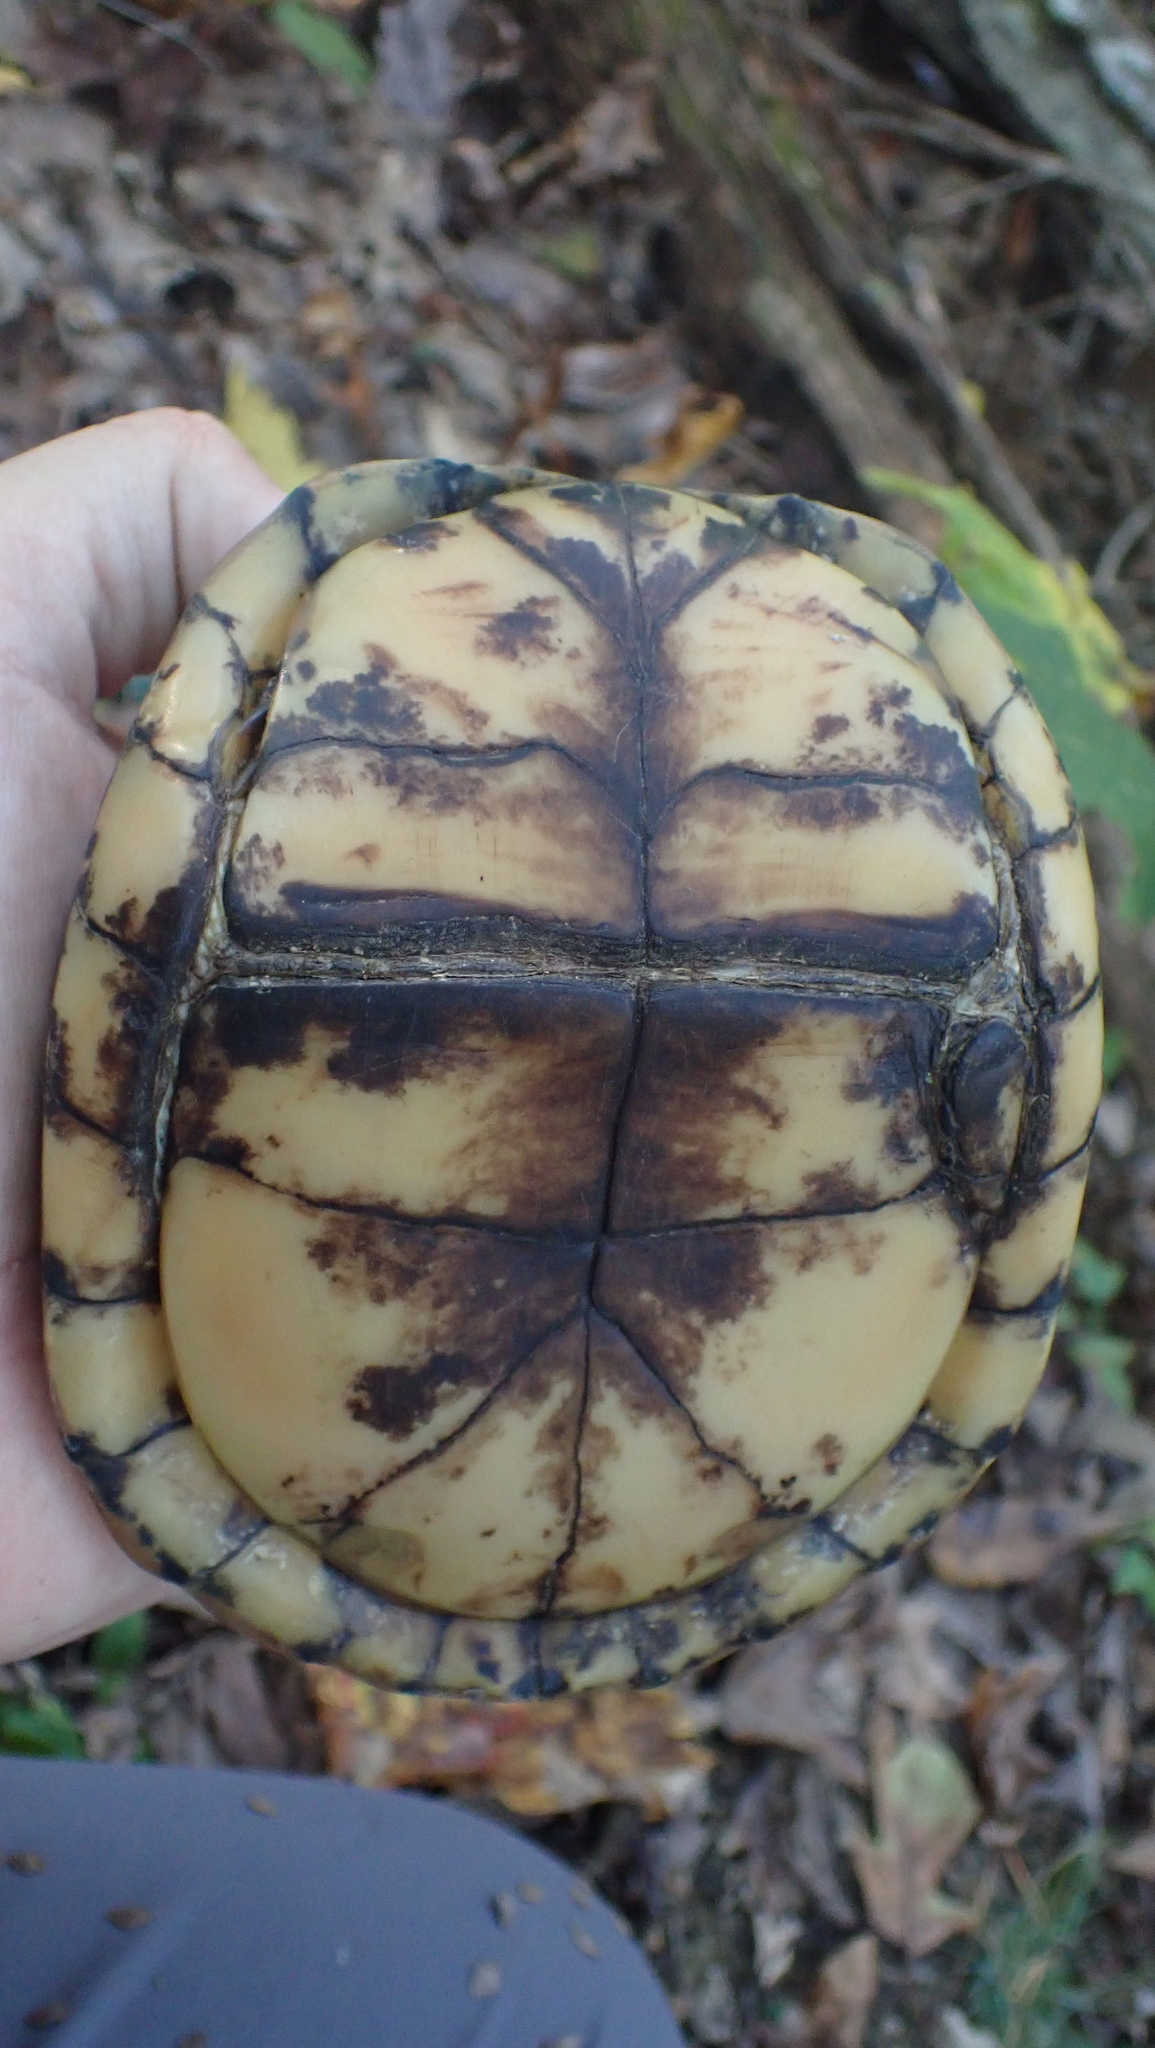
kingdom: Animalia
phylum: Chordata
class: Testudines
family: Emydidae
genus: Terrapene
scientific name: Terrapene carolina
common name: Common box turtle
